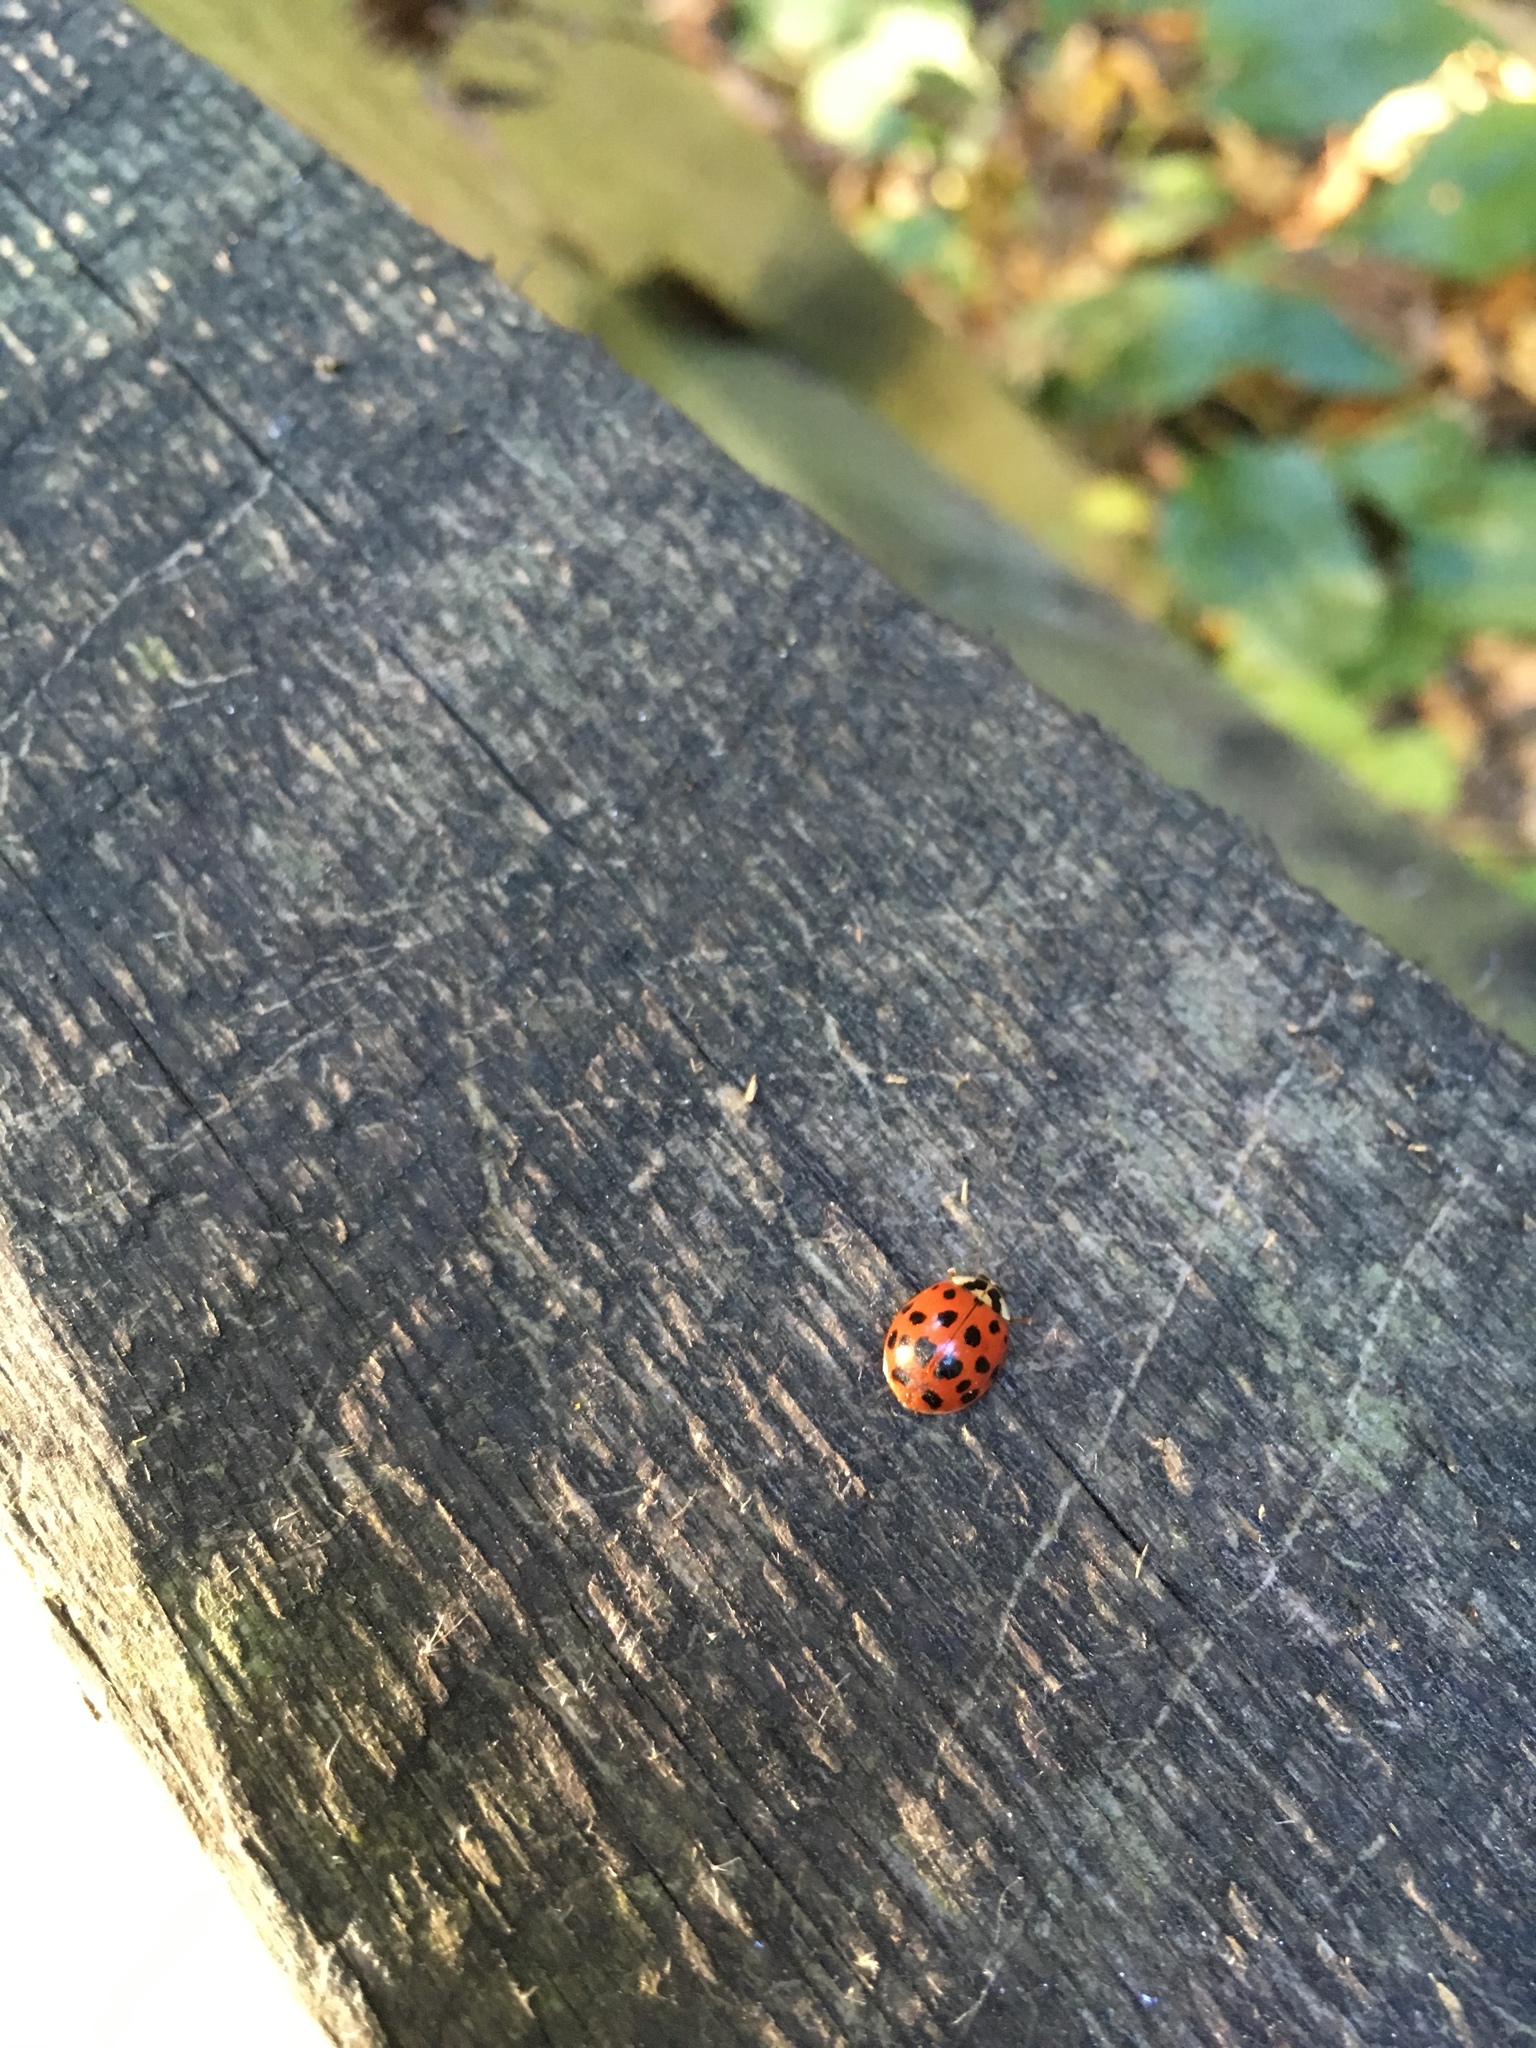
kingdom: Animalia
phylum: Arthropoda
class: Insecta
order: Coleoptera
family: Coccinellidae
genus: Harmonia
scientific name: Harmonia axyridis
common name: Harlequin ladybird
